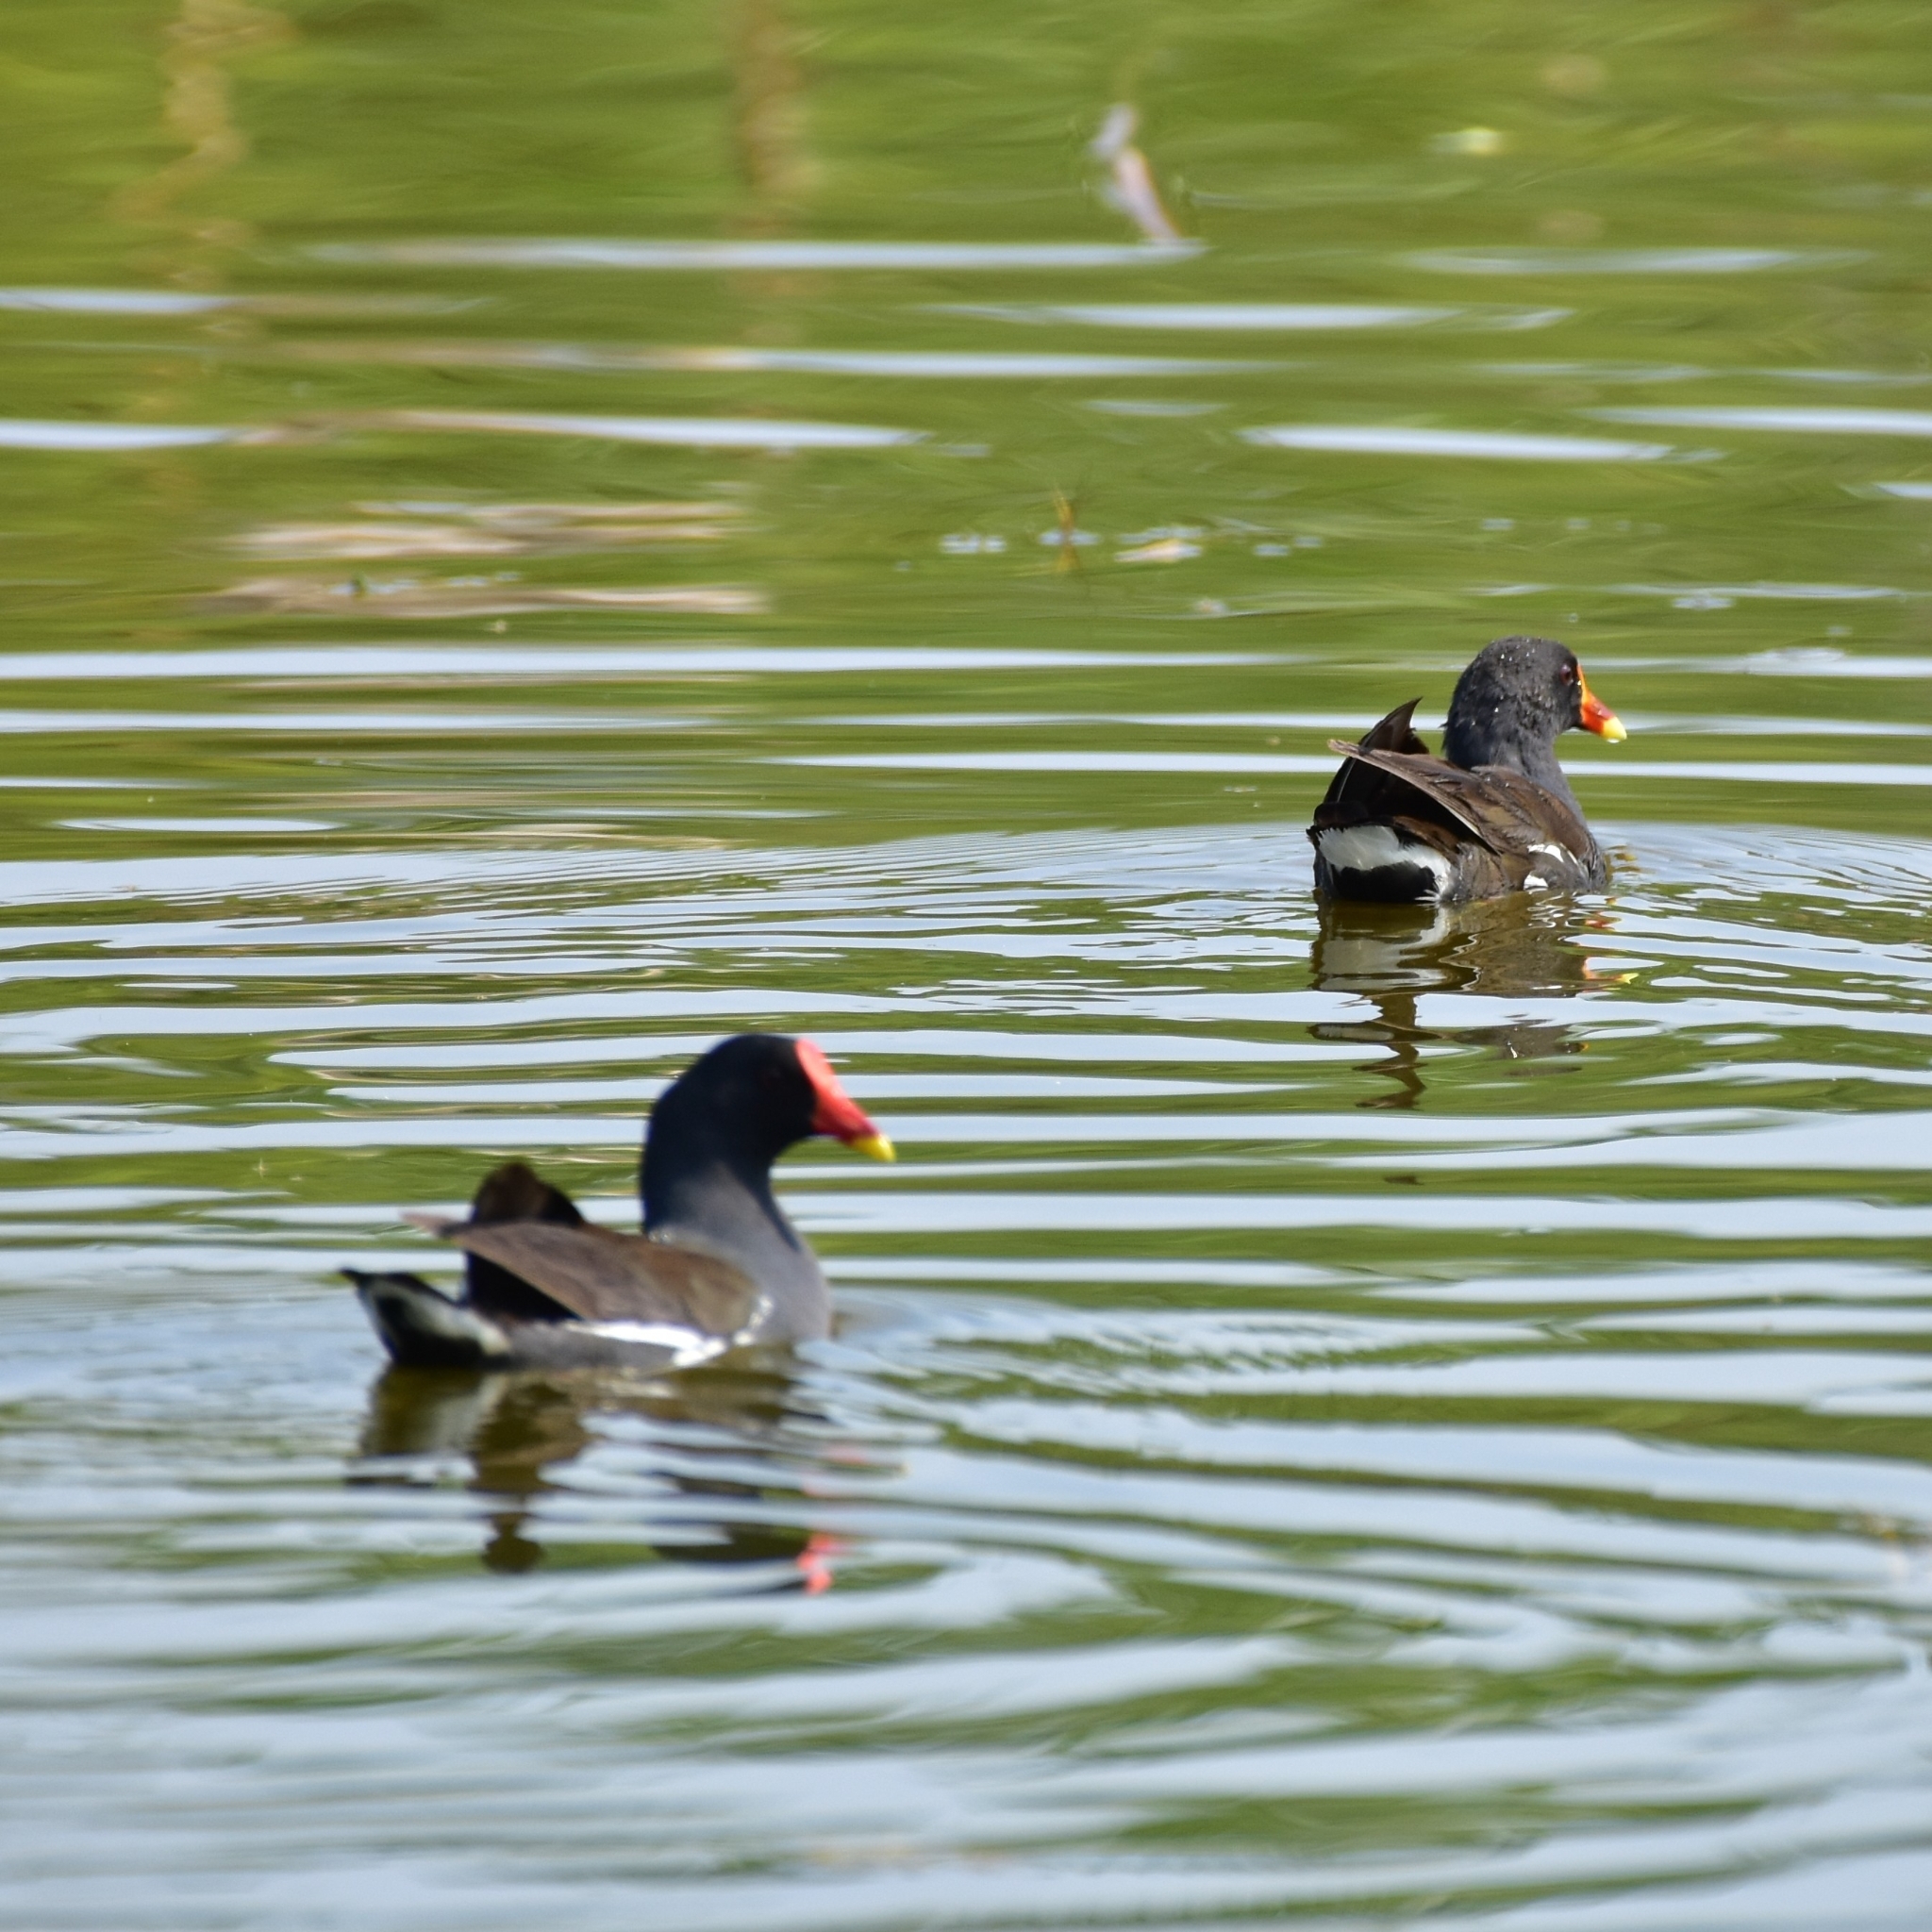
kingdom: Animalia
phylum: Chordata
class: Aves
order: Gruiformes
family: Rallidae
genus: Gallinula
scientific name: Gallinula chloropus
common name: Common moorhen
